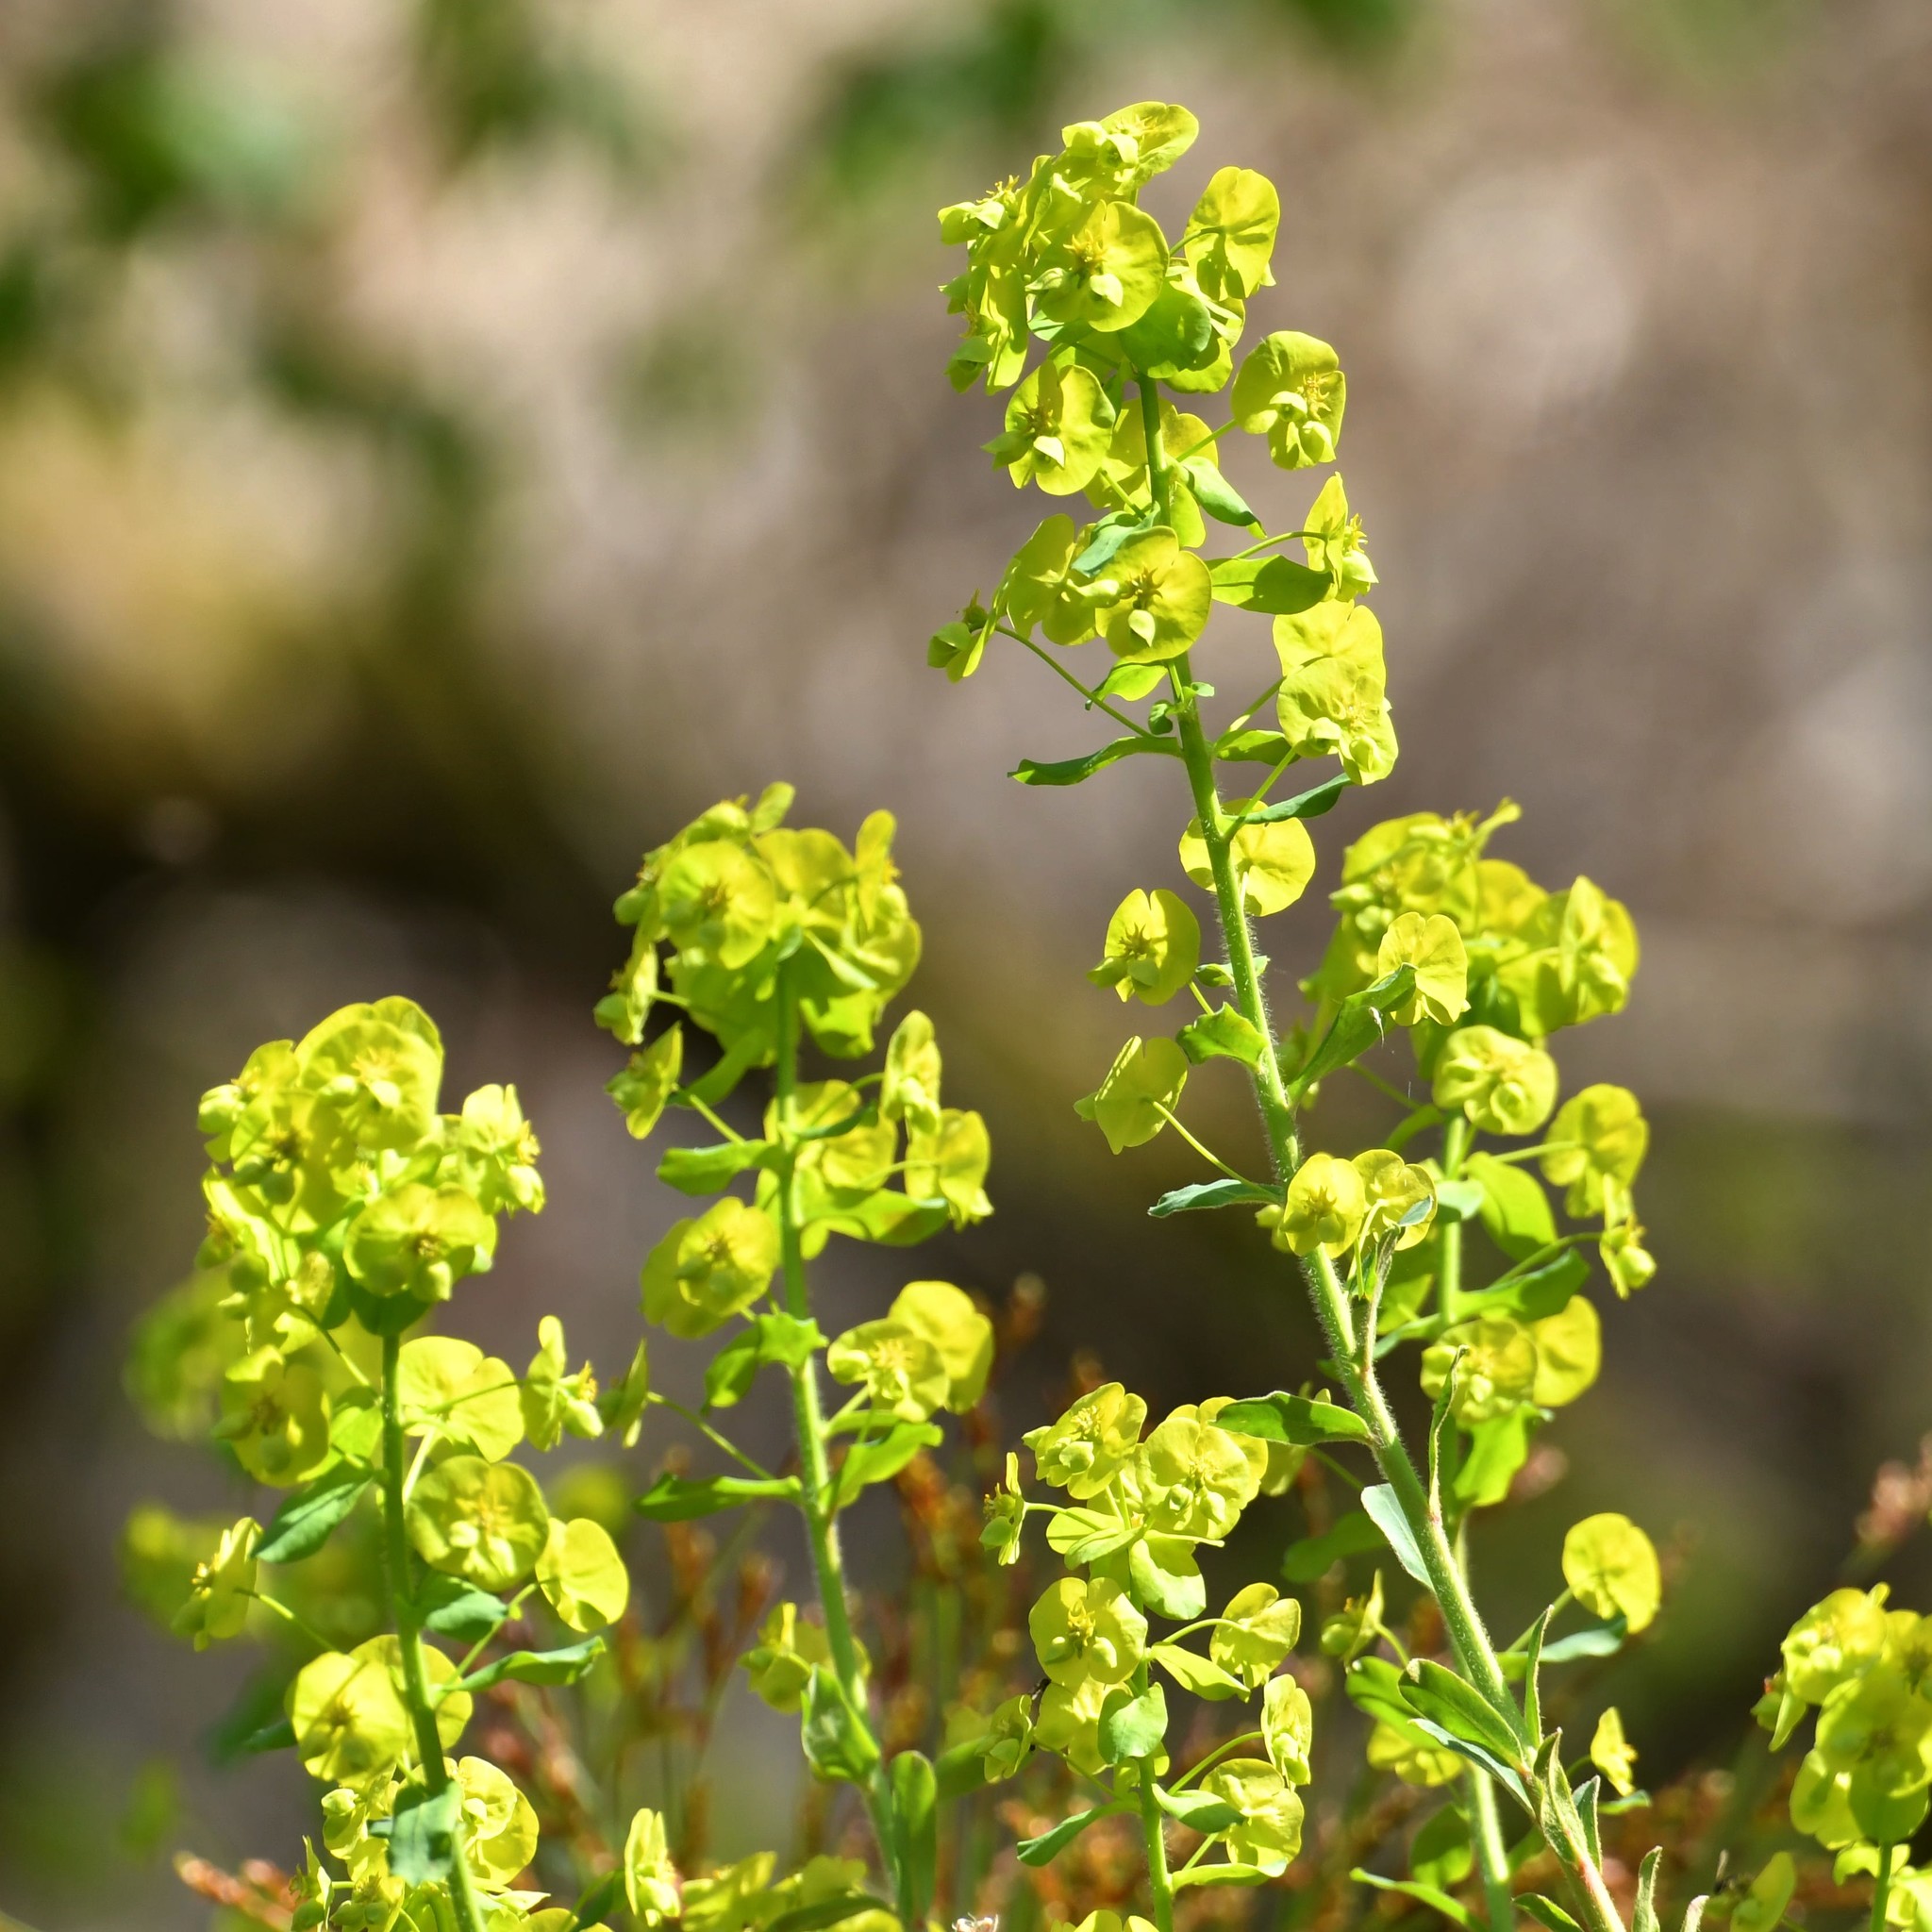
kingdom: Plantae
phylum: Tracheophyta
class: Magnoliopsida
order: Malpighiales
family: Euphorbiaceae
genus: Euphorbia
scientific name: Euphorbia cyparissias
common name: Cypress spurge
